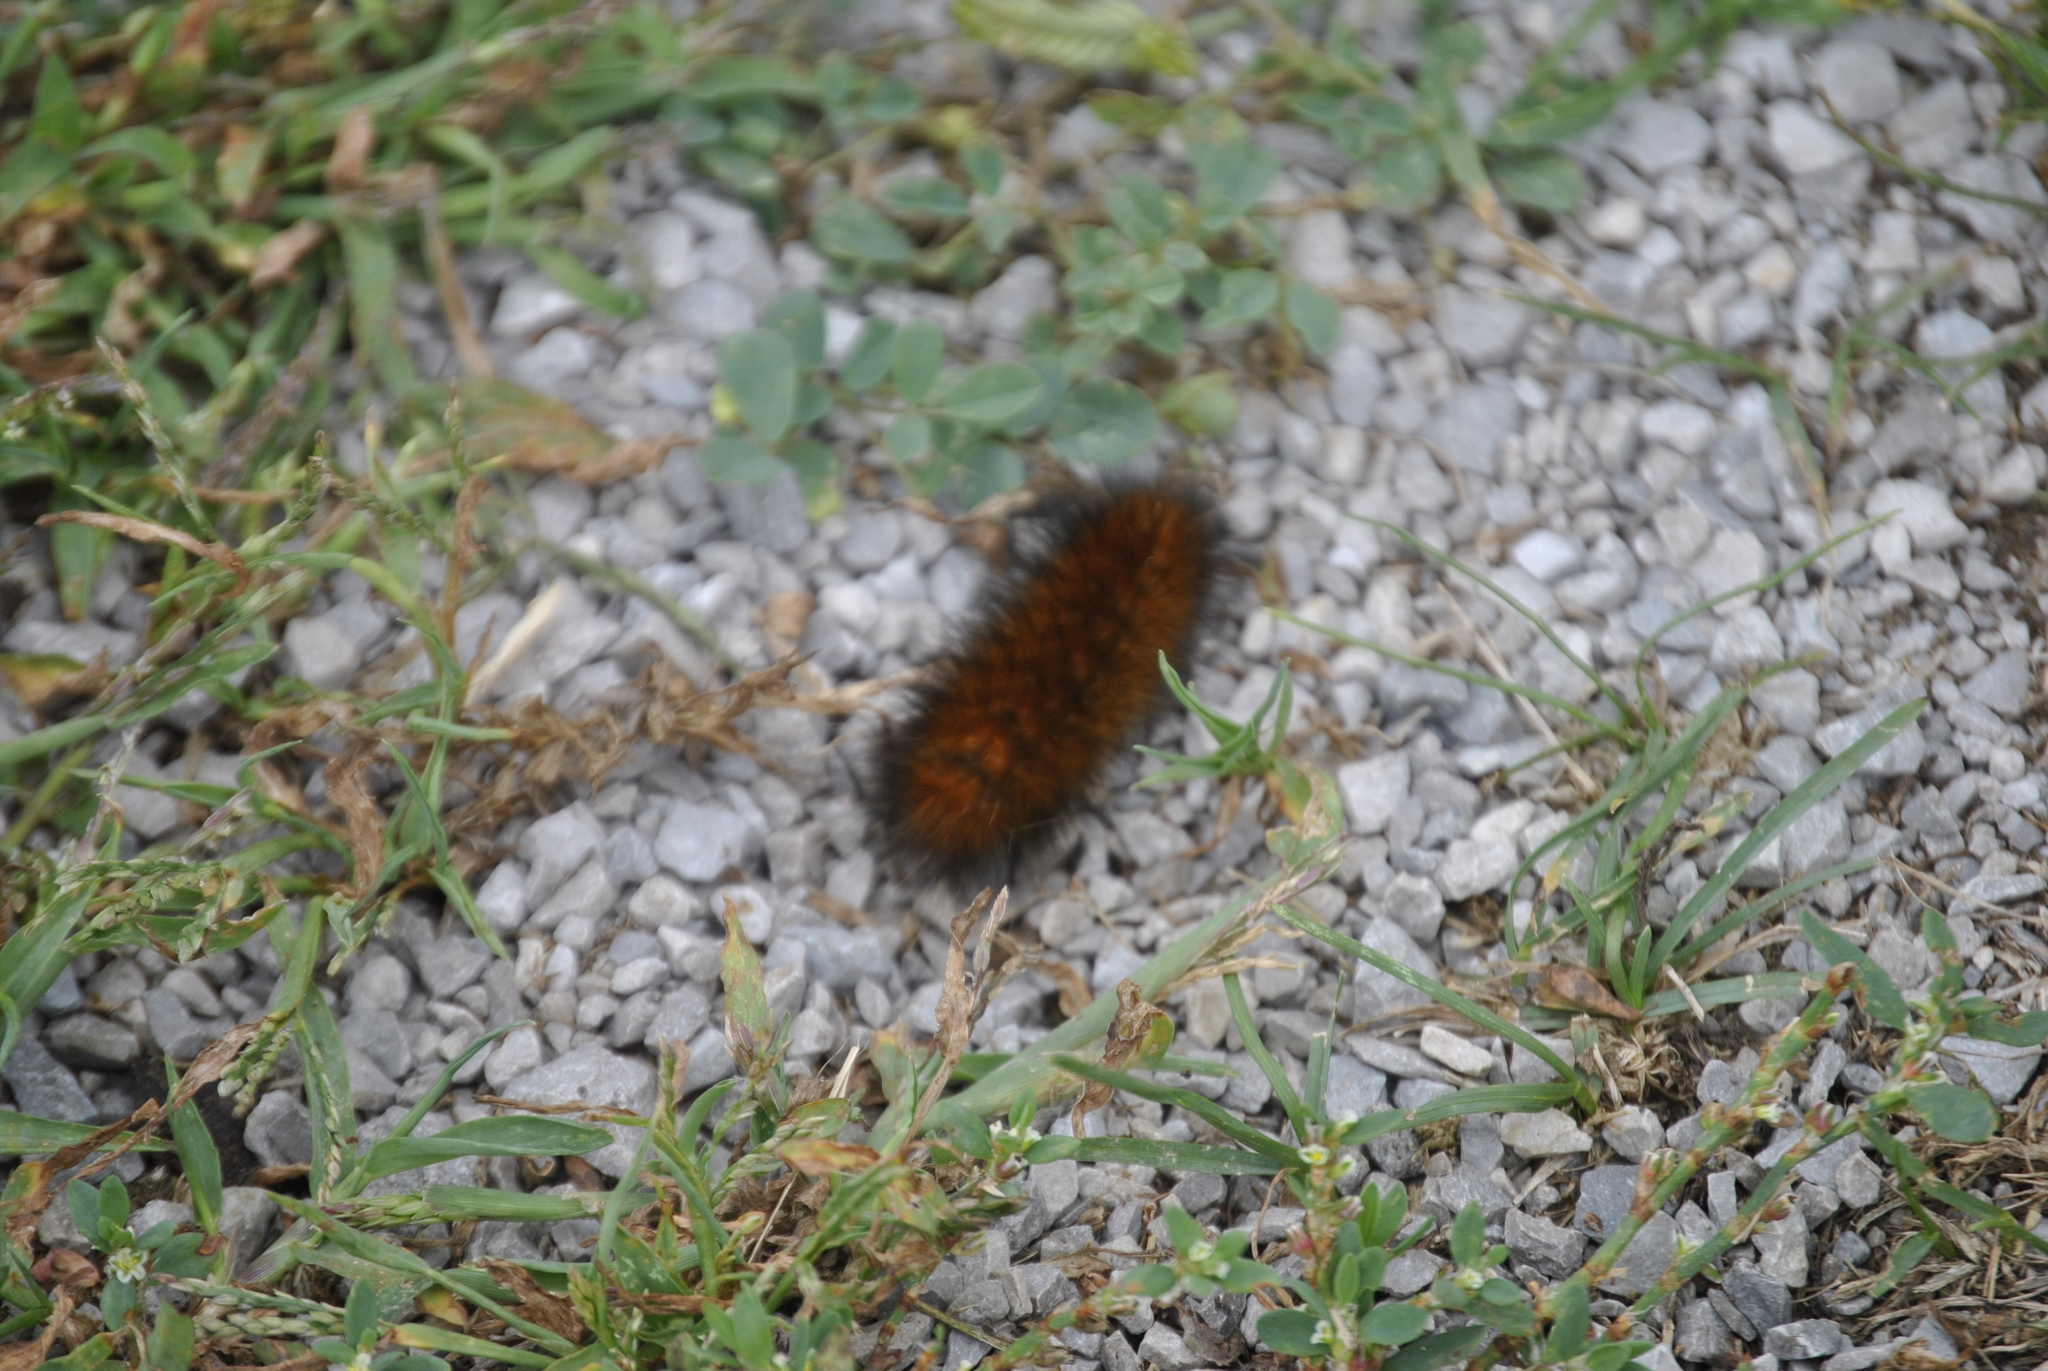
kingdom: Animalia
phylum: Arthropoda
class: Insecta
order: Lepidoptera
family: Erebidae
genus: Spilosoma
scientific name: Spilosoma virginica
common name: Virginia tiger moth
